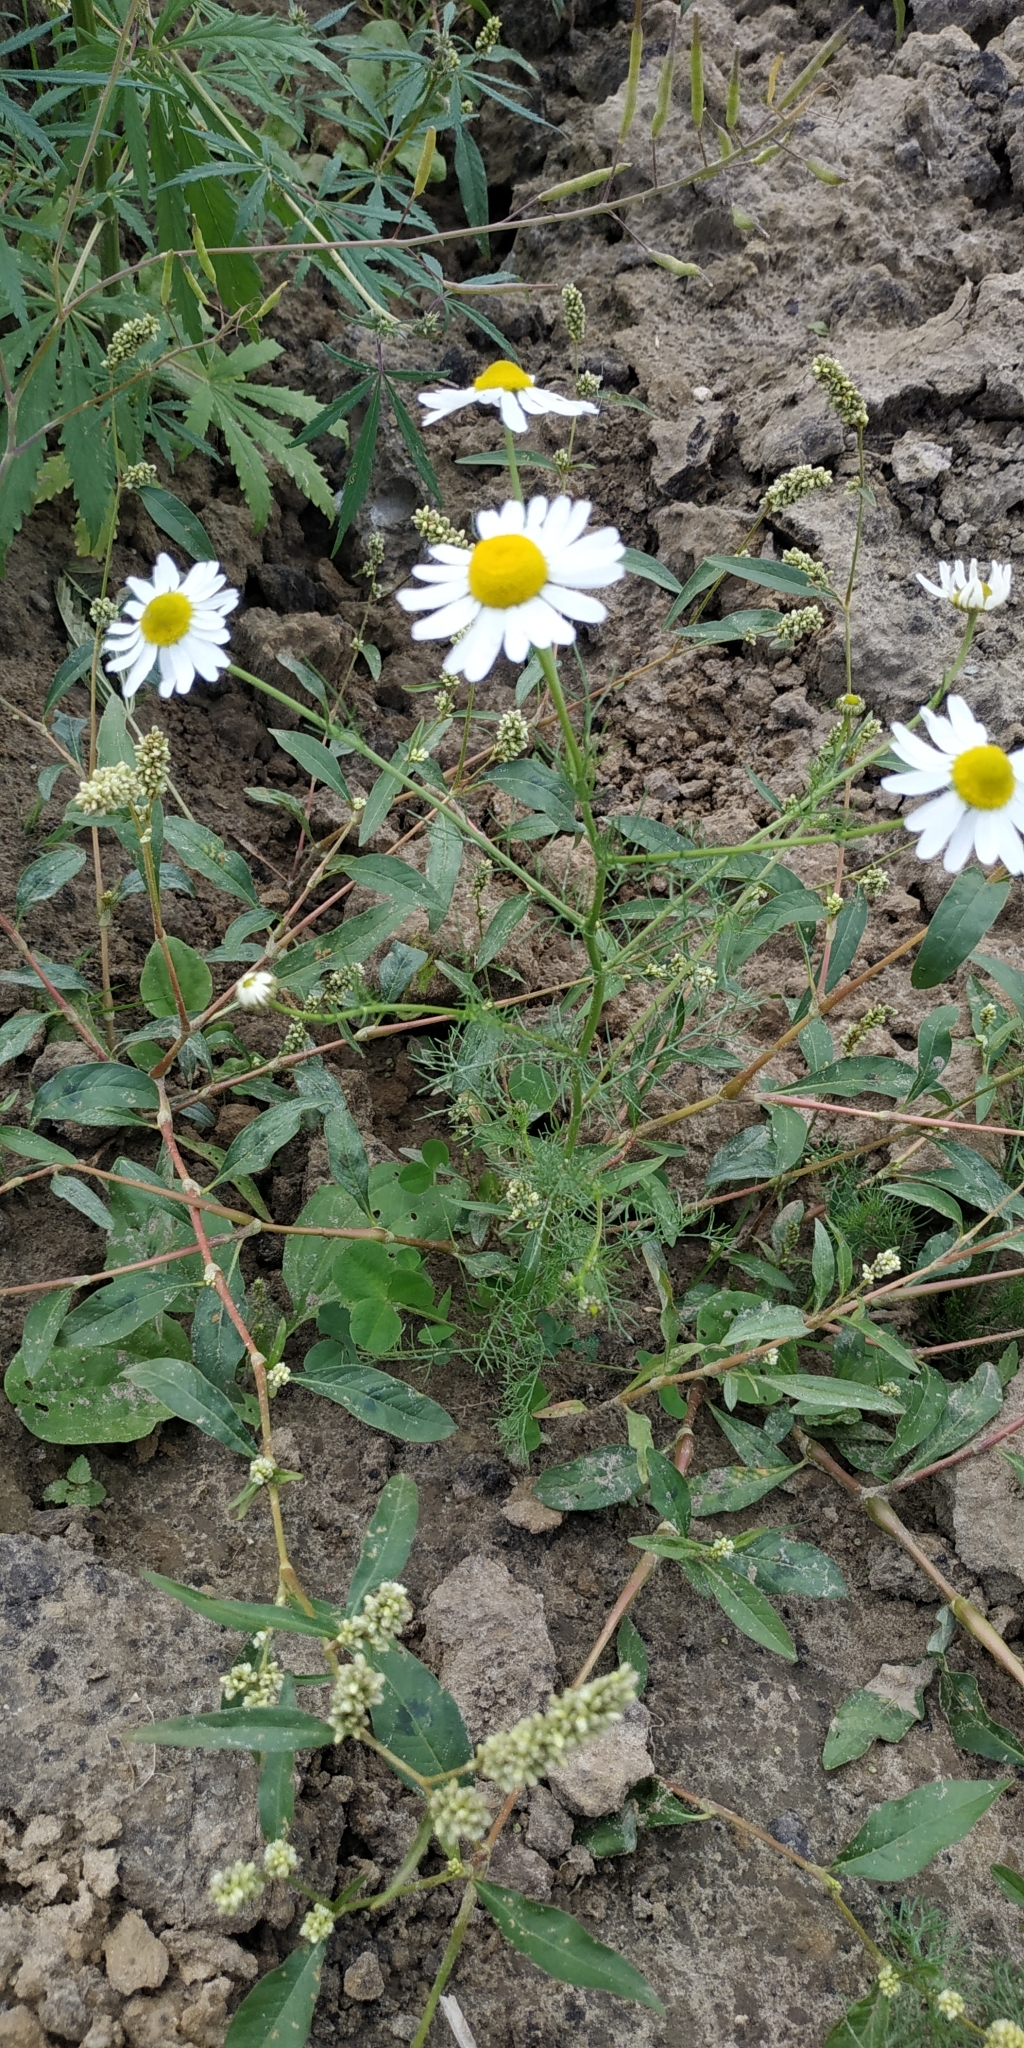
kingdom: Plantae
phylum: Tracheophyta
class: Magnoliopsida
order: Asterales
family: Asteraceae
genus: Tripleurospermum
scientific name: Tripleurospermum inodorum
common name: Scentless mayweed
